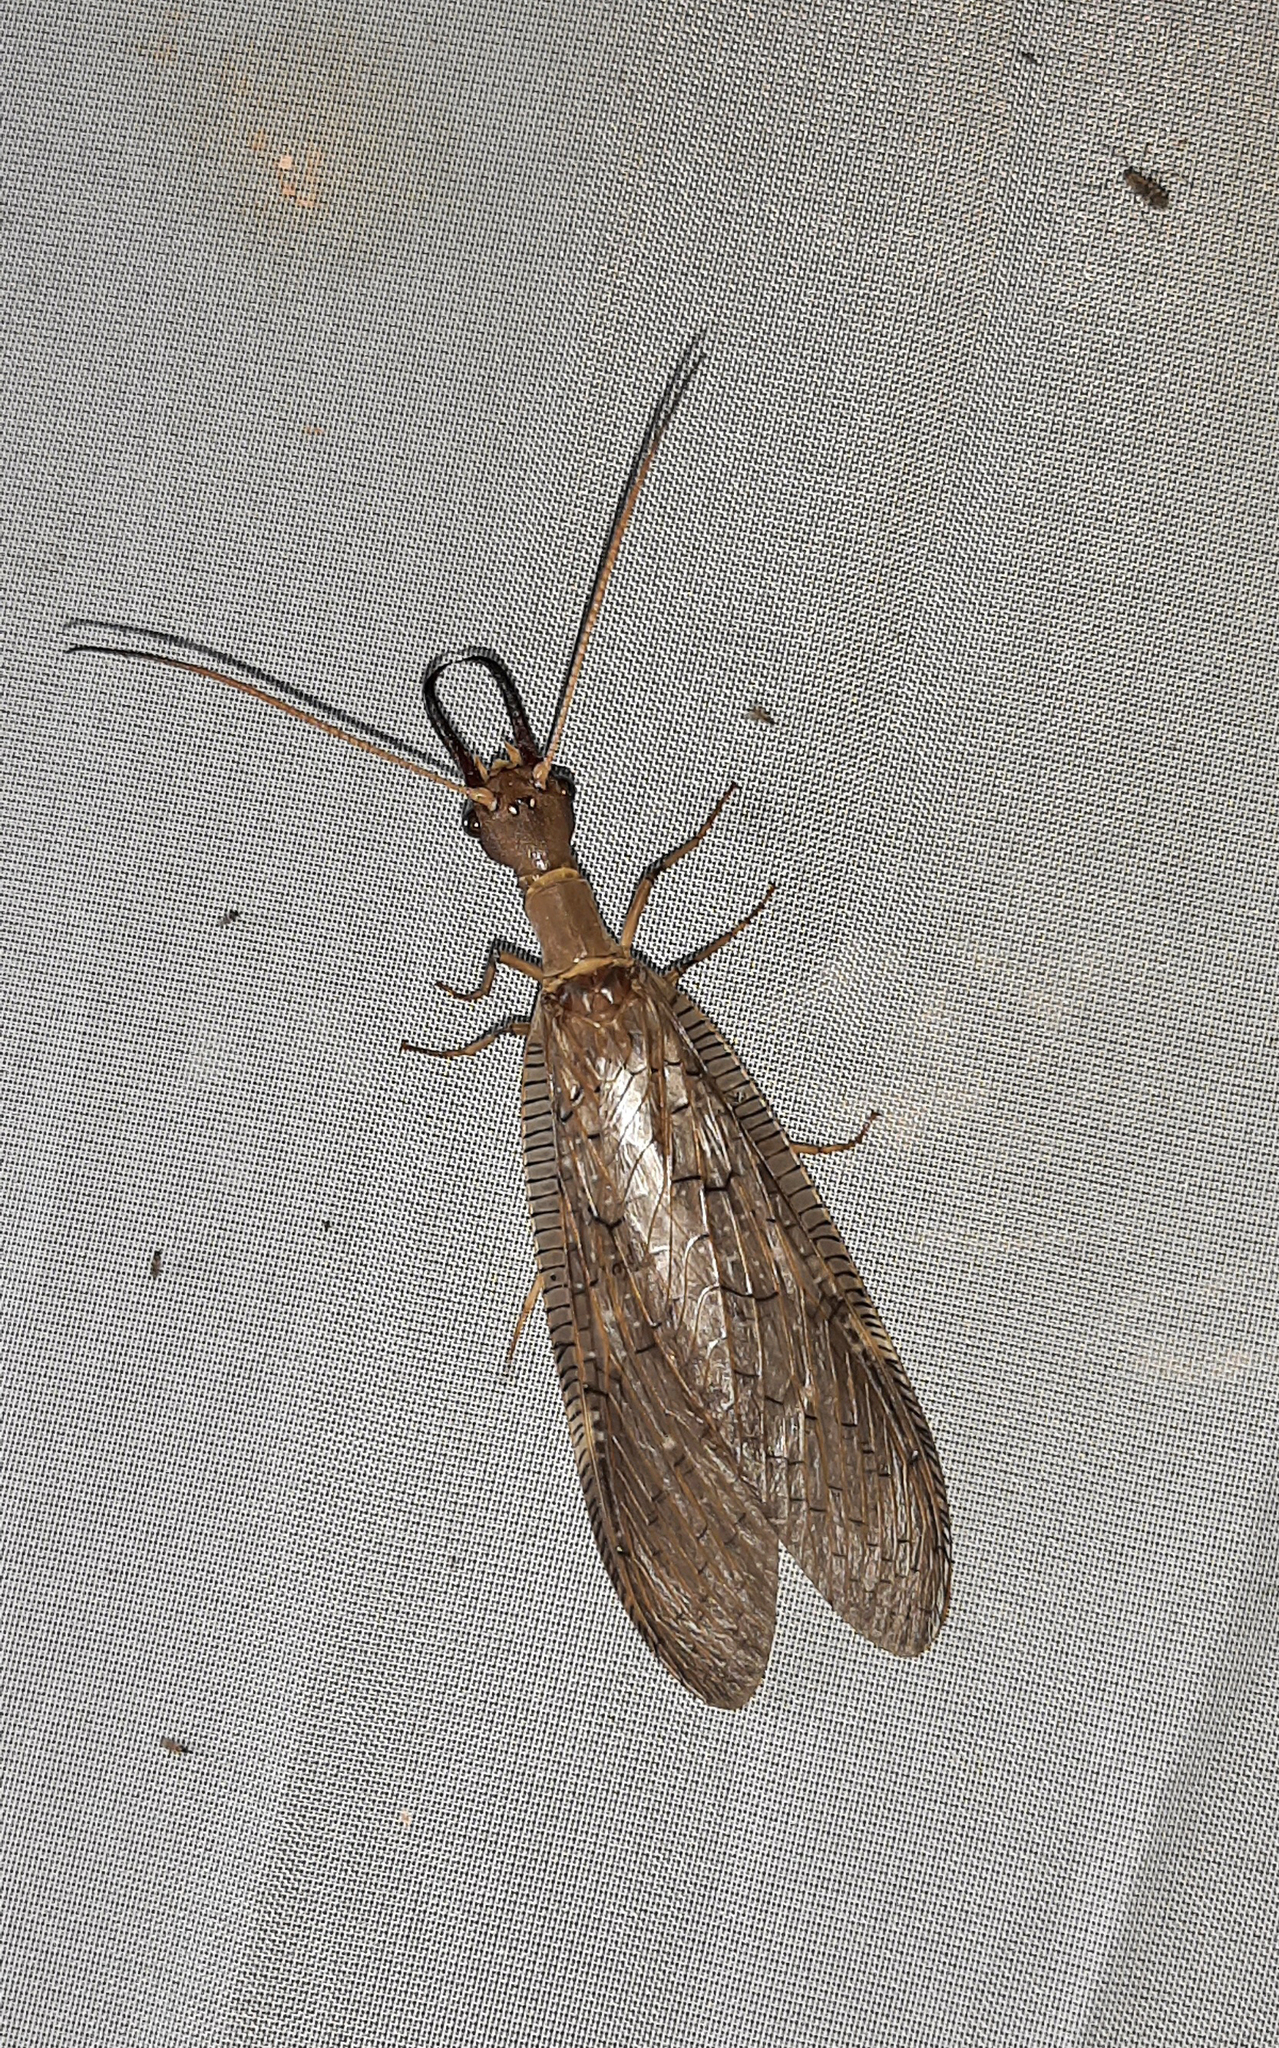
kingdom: Animalia
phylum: Arthropoda
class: Insecta
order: Megaloptera
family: Corydalidae
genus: Corydalus
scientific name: Corydalus peruvianus
